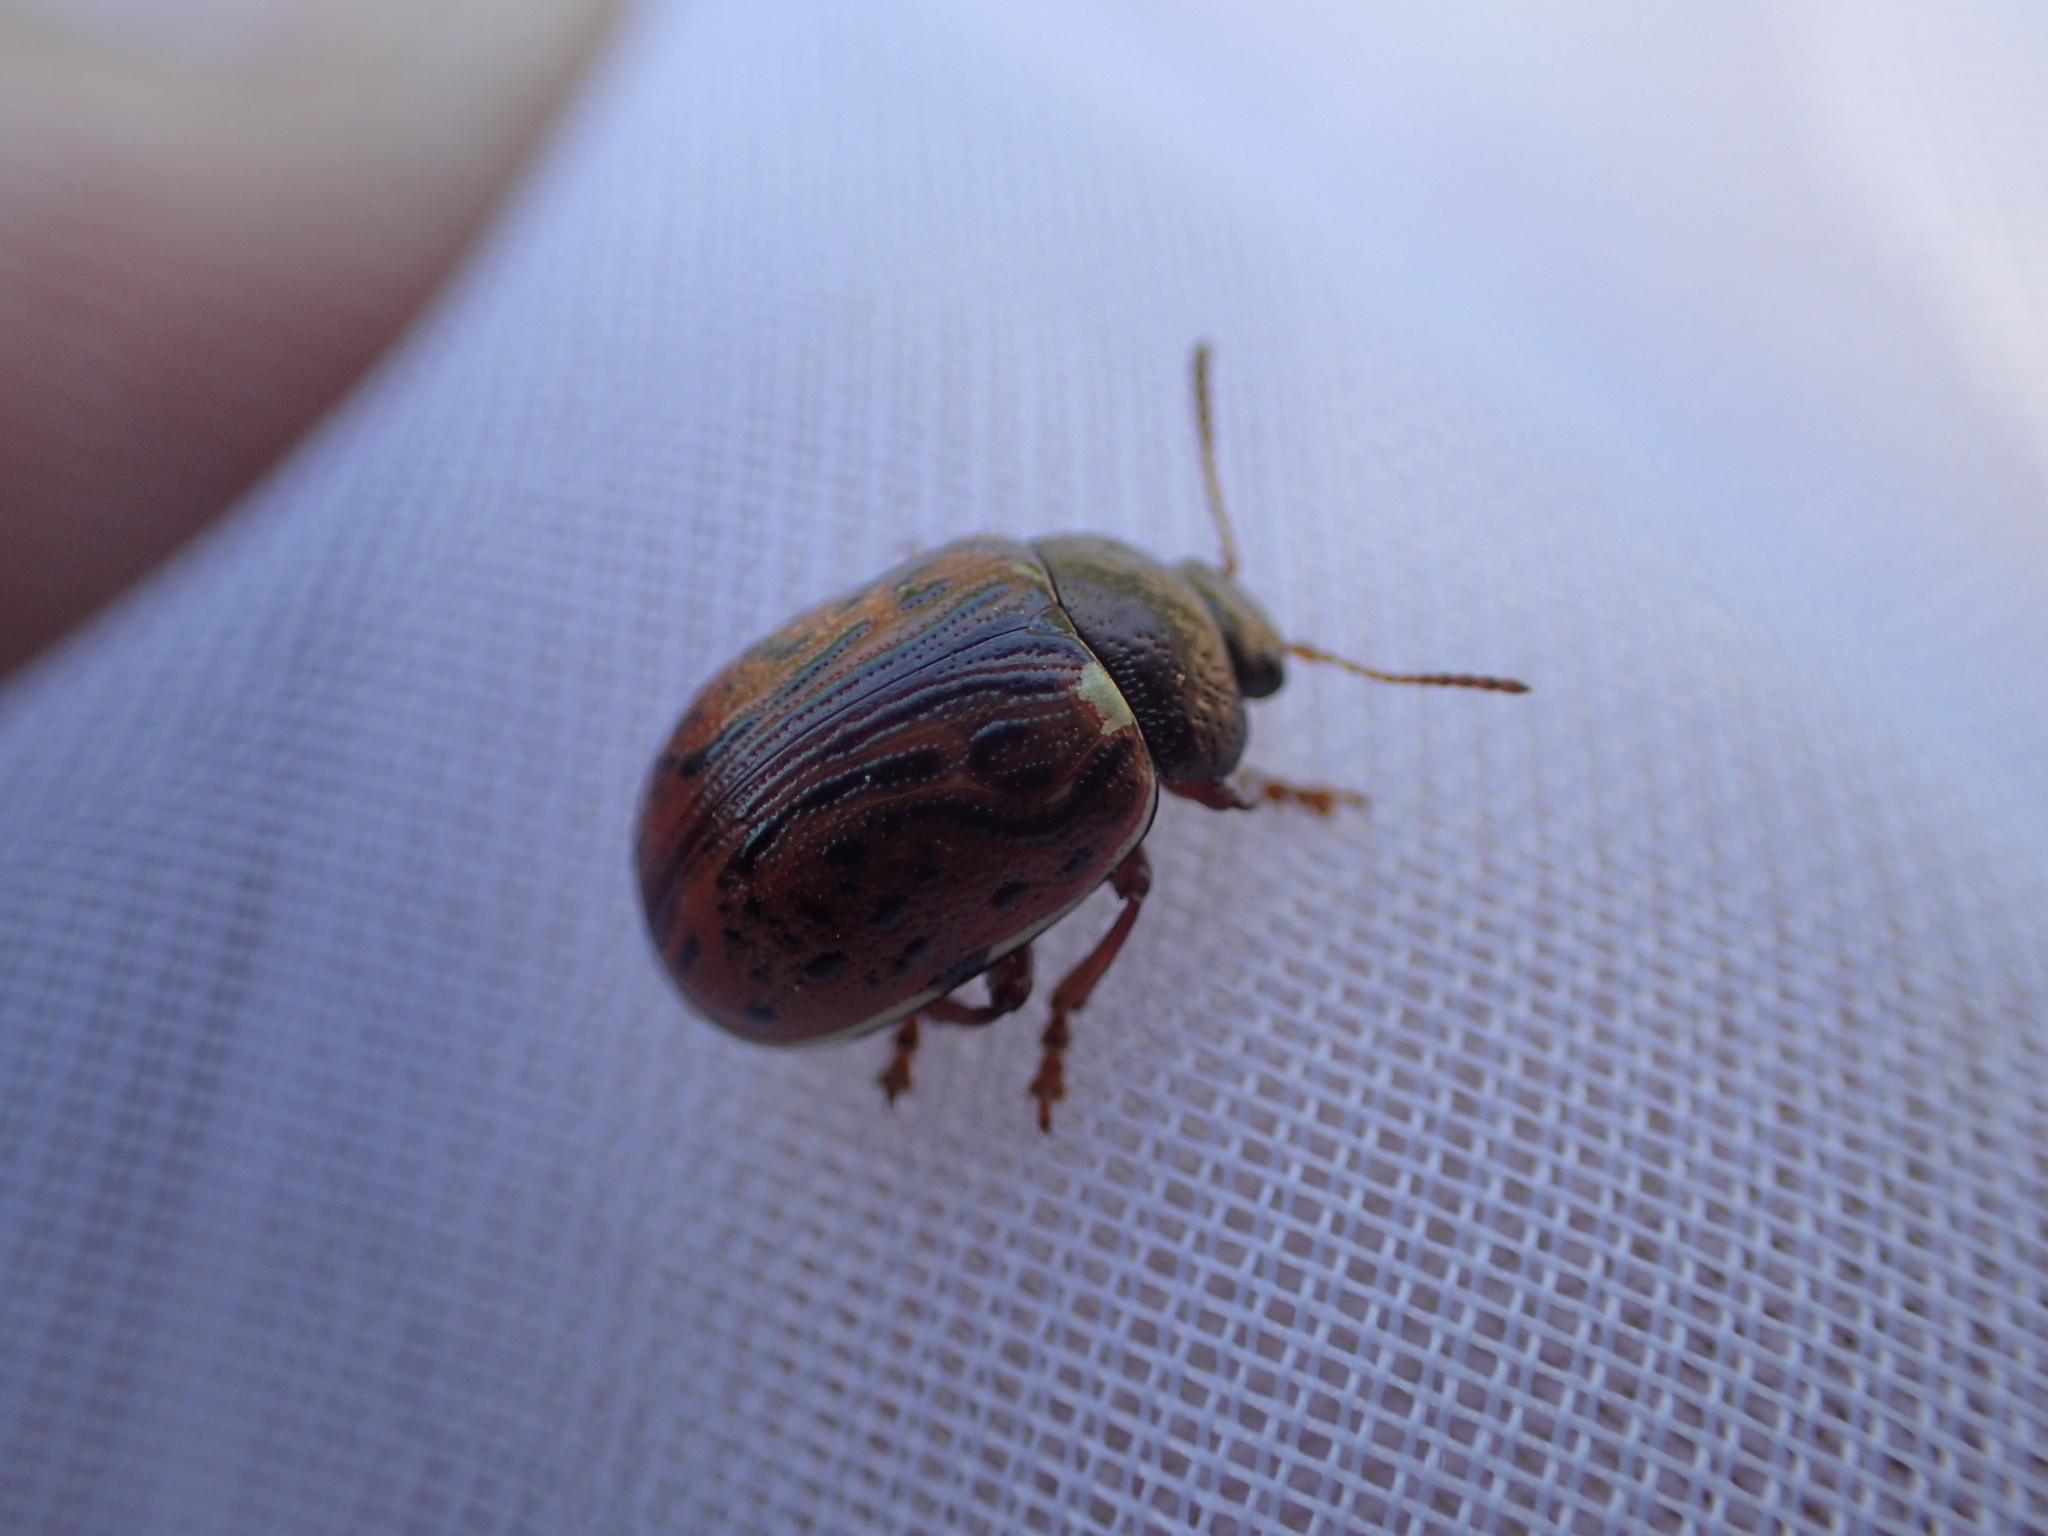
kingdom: Animalia
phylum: Arthropoda
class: Insecta
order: Coleoptera
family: Chrysomelidae
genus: Calligrapha
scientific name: Calligrapha alni
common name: Russet alder leaf beetle
